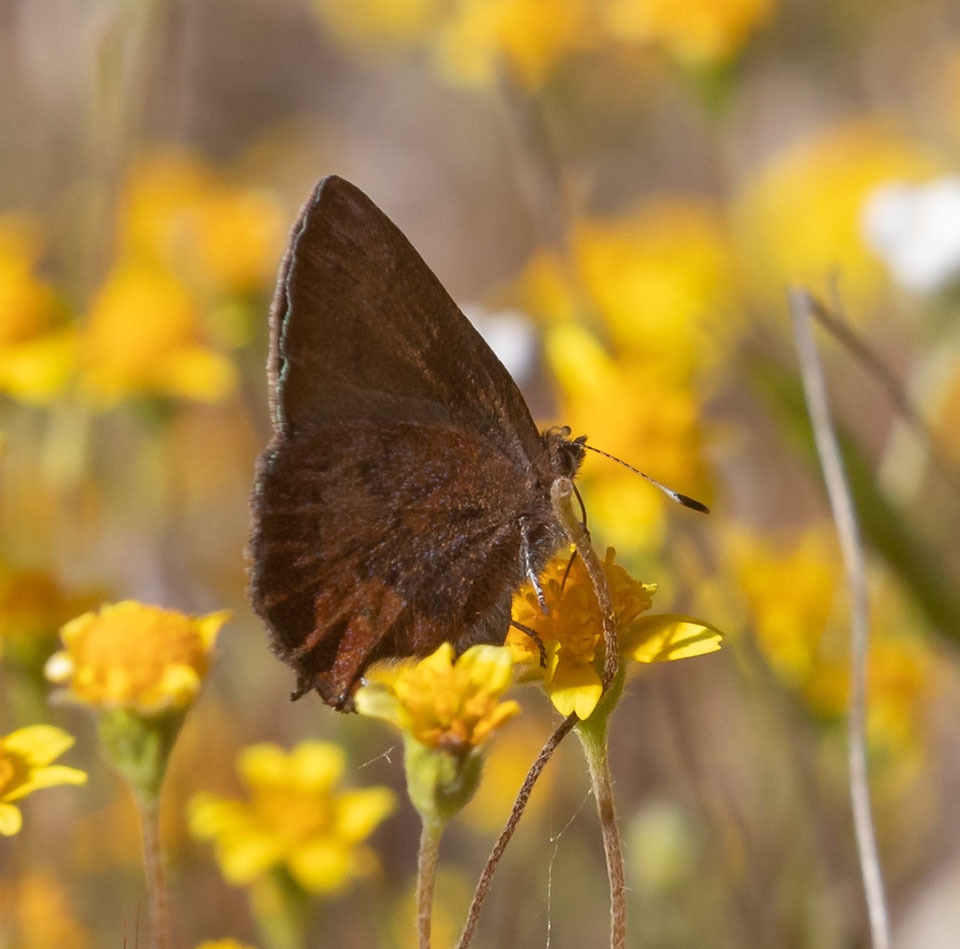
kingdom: Animalia
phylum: Arthropoda
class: Insecta
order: Lepidoptera
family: Lycaenidae
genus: Incisalia
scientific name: Incisalia irioides
